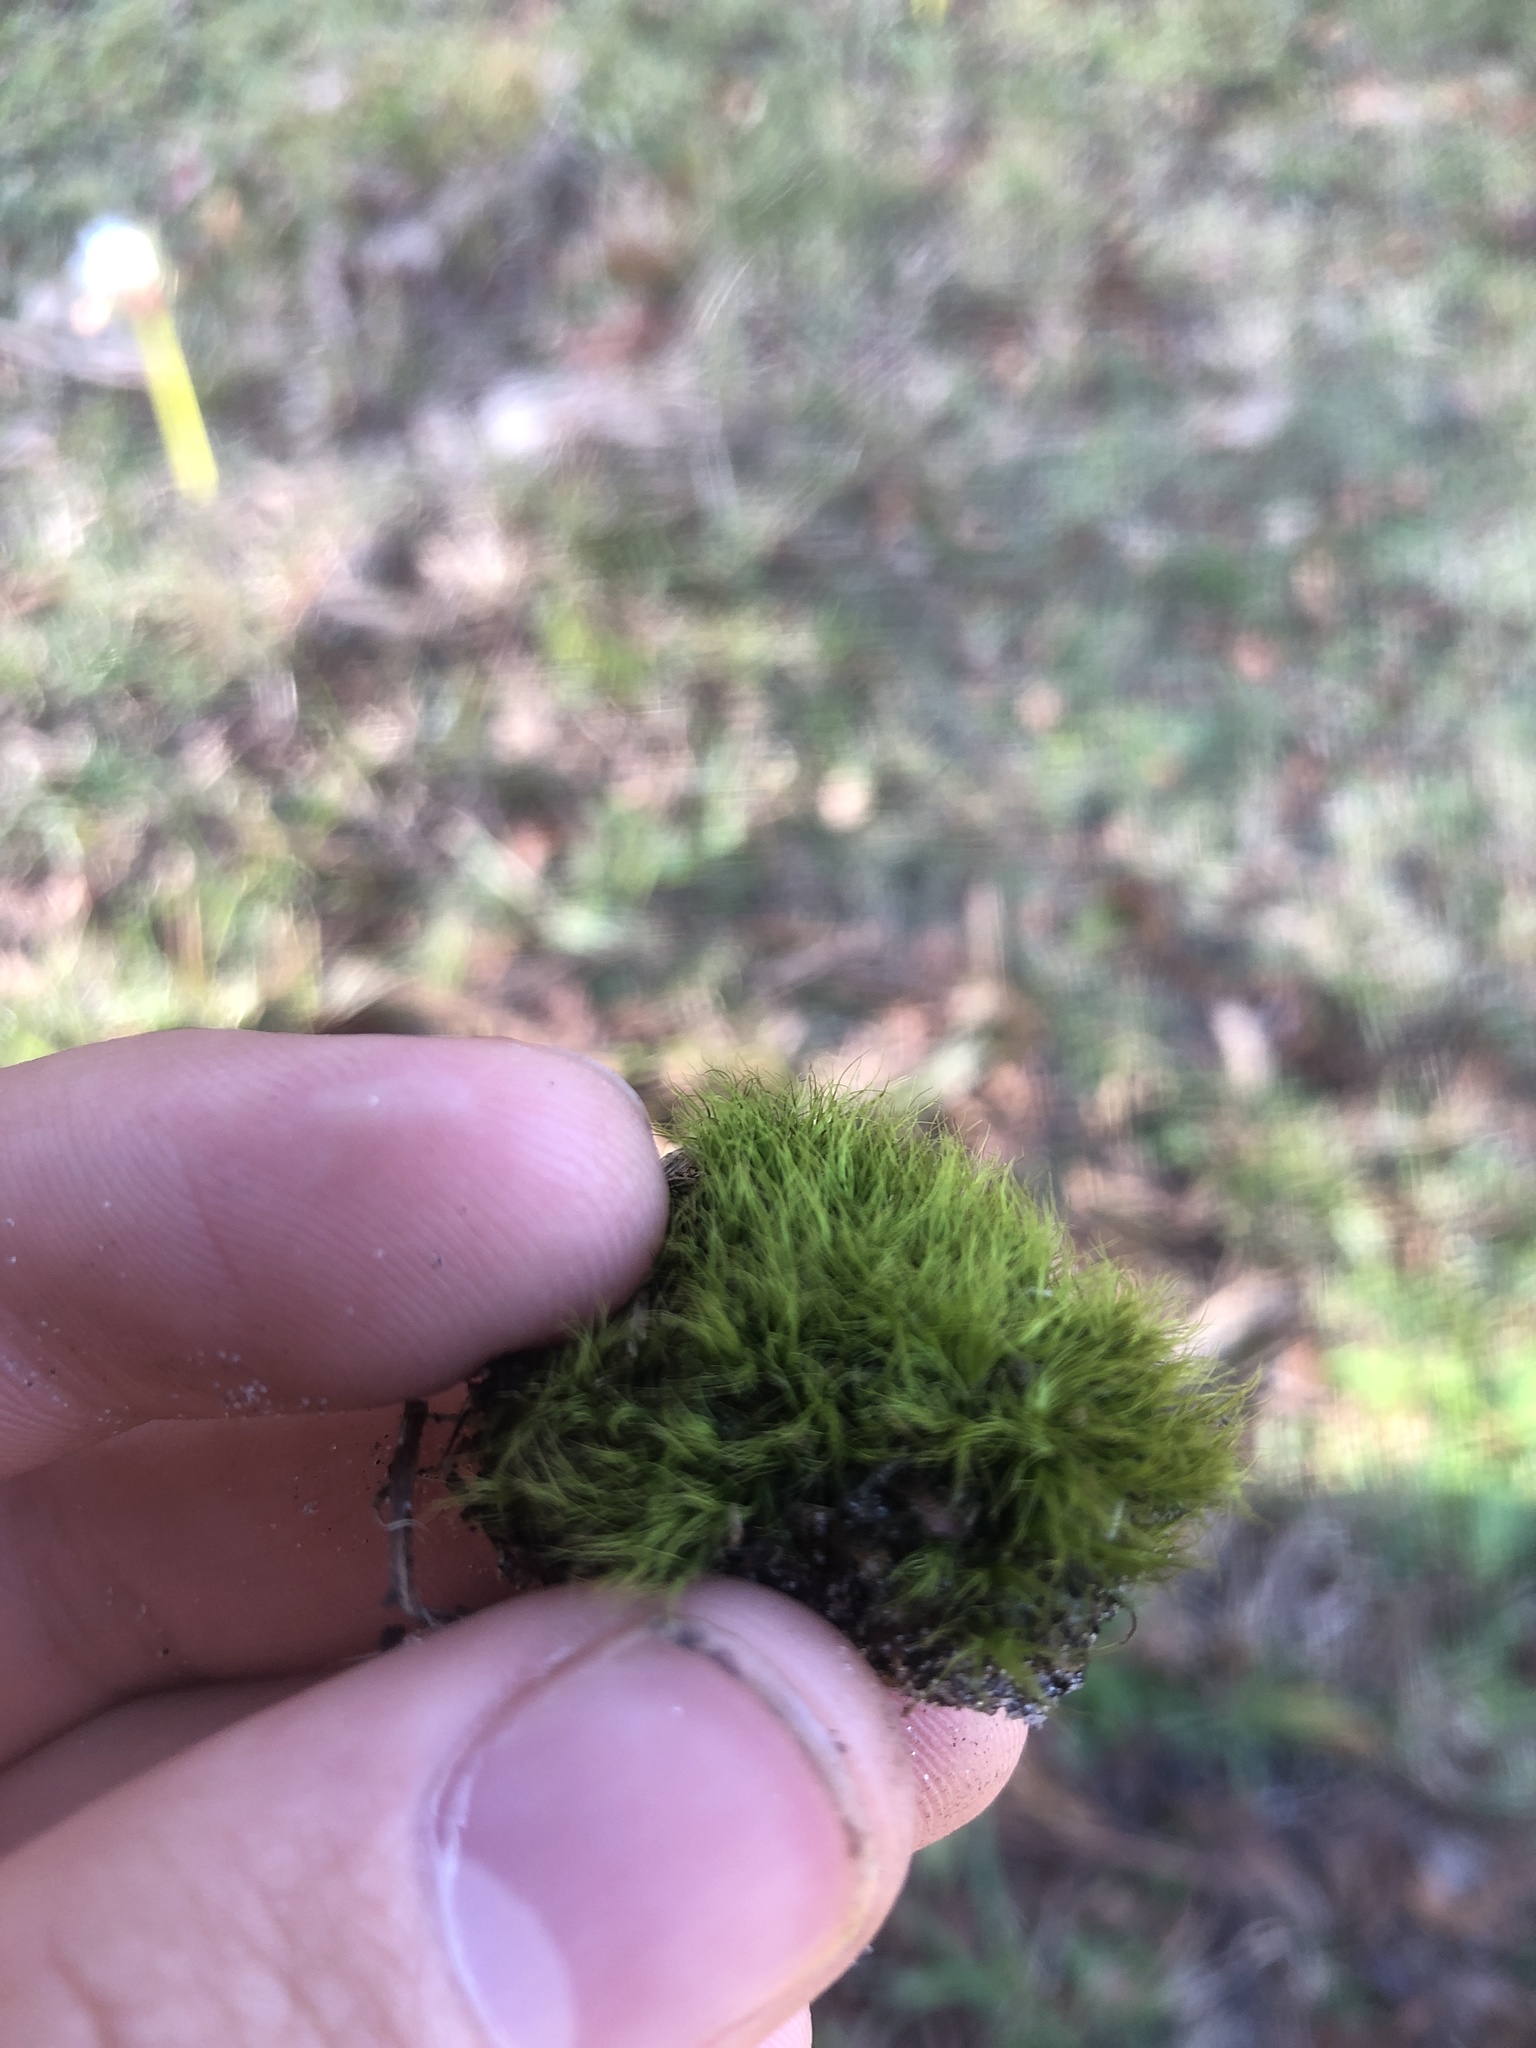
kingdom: Plantae
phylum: Bryophyta
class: Bryopsida
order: Dicranales
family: Dicranaceae
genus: Dicranum
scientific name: Dicranum scoparium
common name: Broom fork-moss
